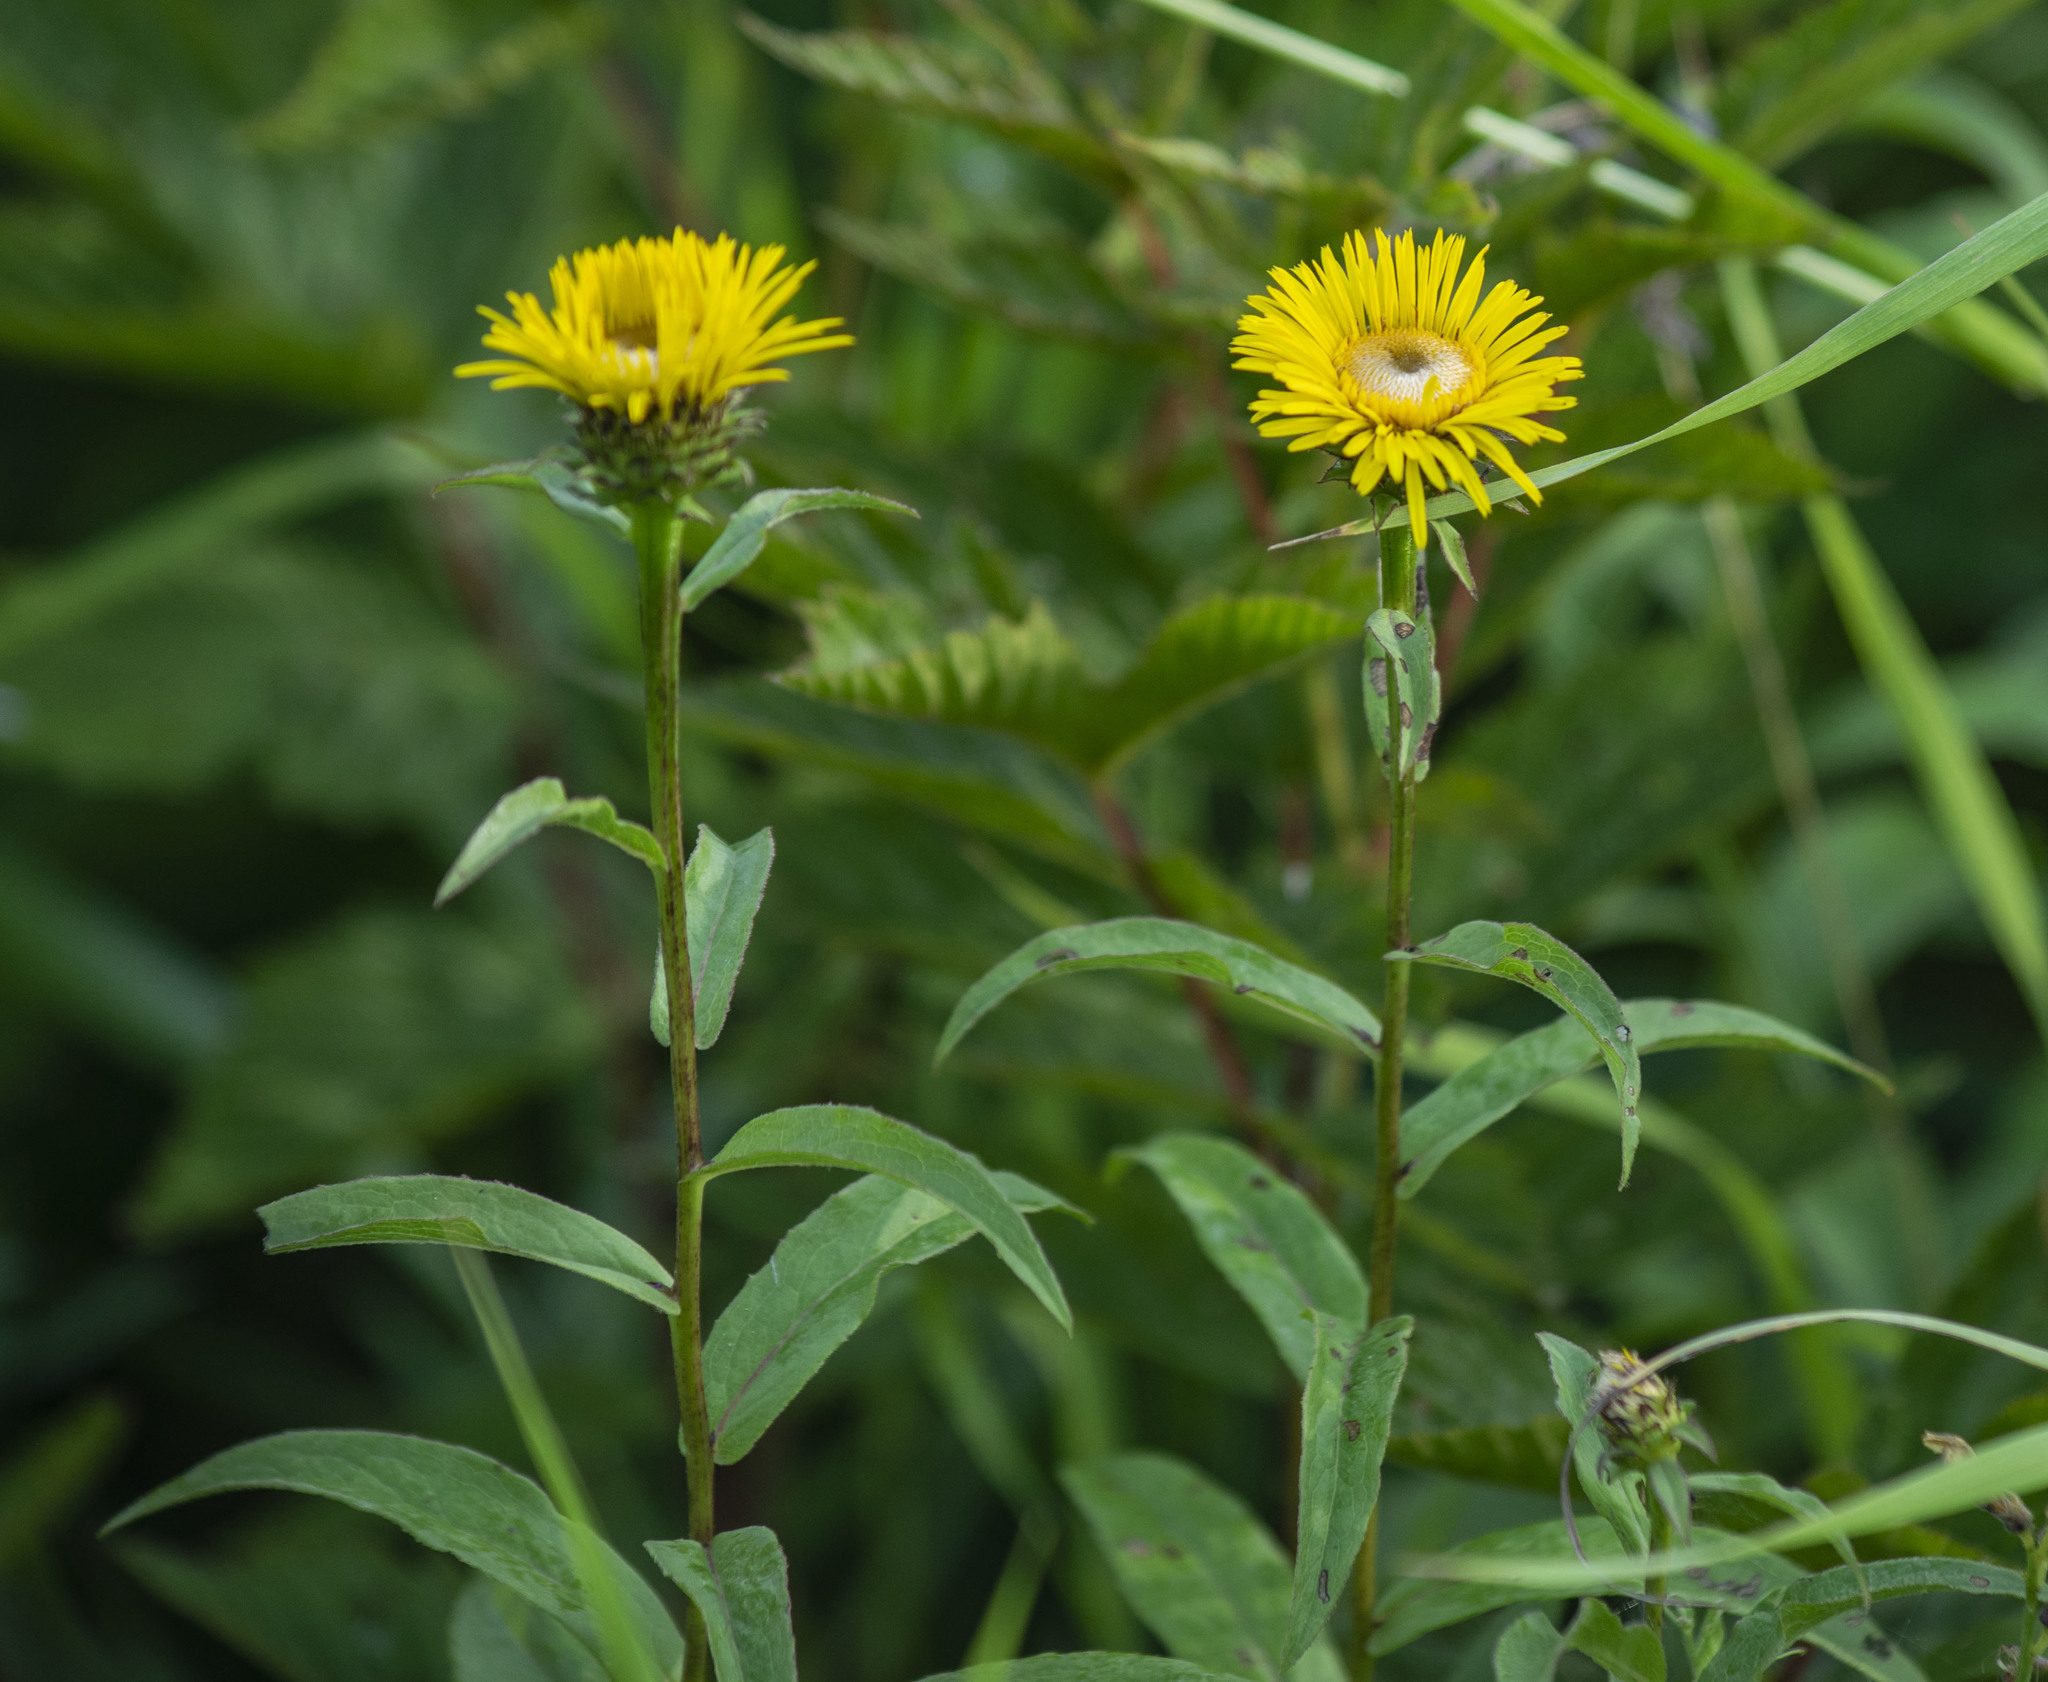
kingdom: Plantae
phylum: Tracheophyta
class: Magnoliopsida
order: Asterales
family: Asteraceae
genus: Pentanema
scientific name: Pentanema salicinum
